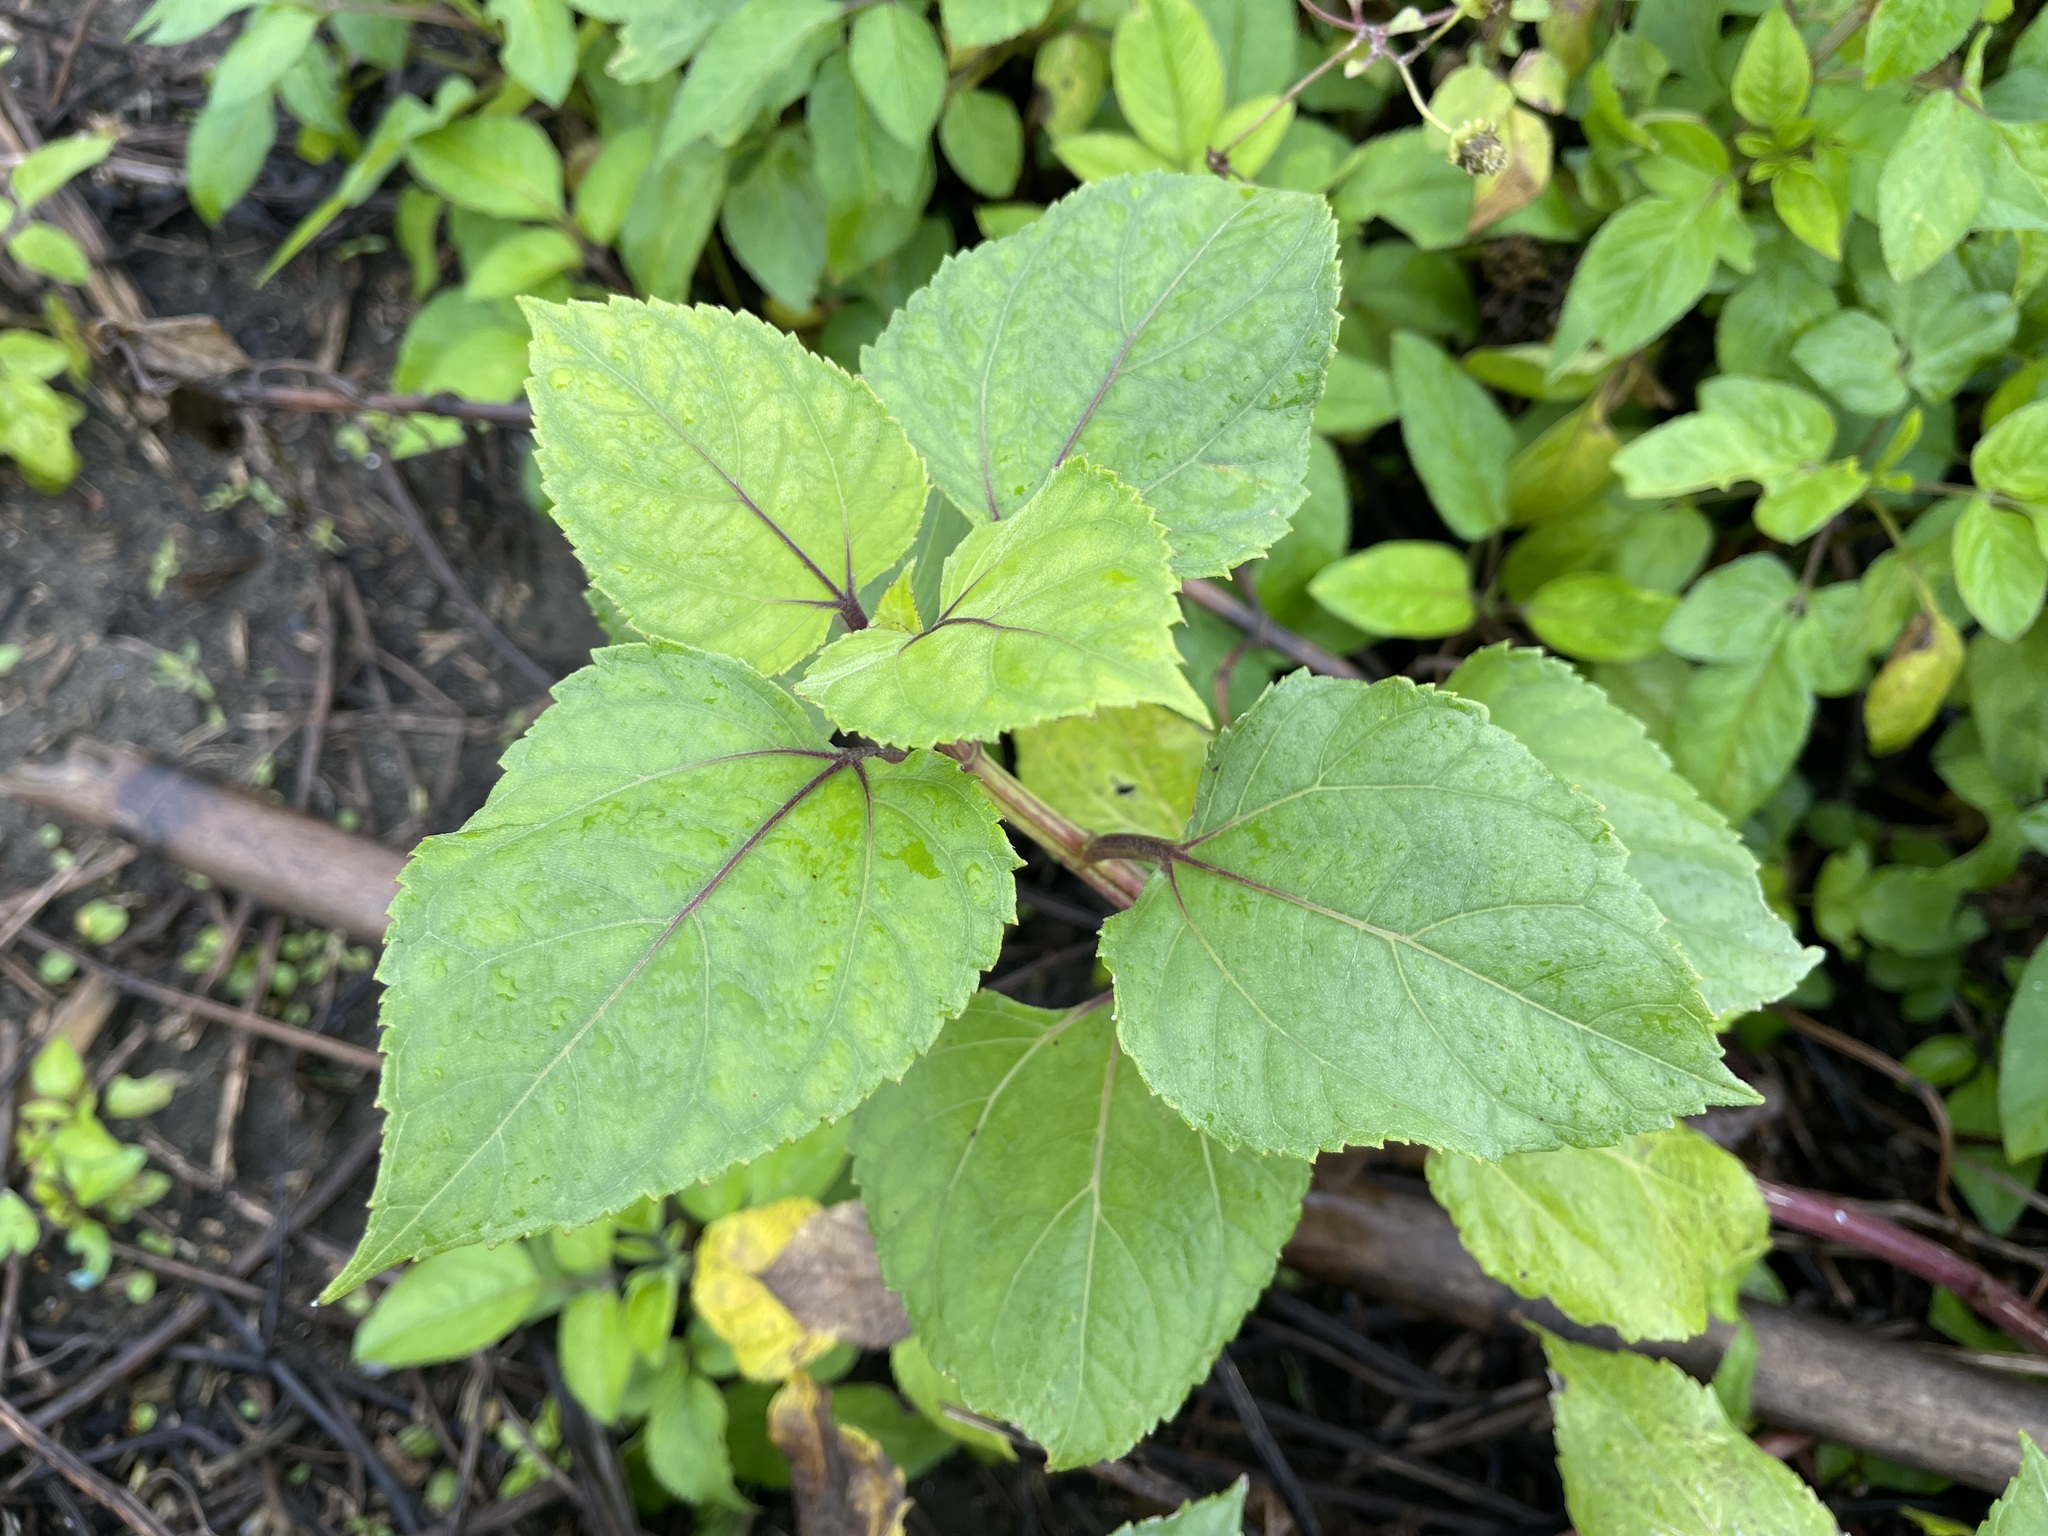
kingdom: Plantae
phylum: Tracheophyta
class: Magnoliopsida
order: Asterales
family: Asteraceae
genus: Wollastonia
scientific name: Wollastonia biflora
